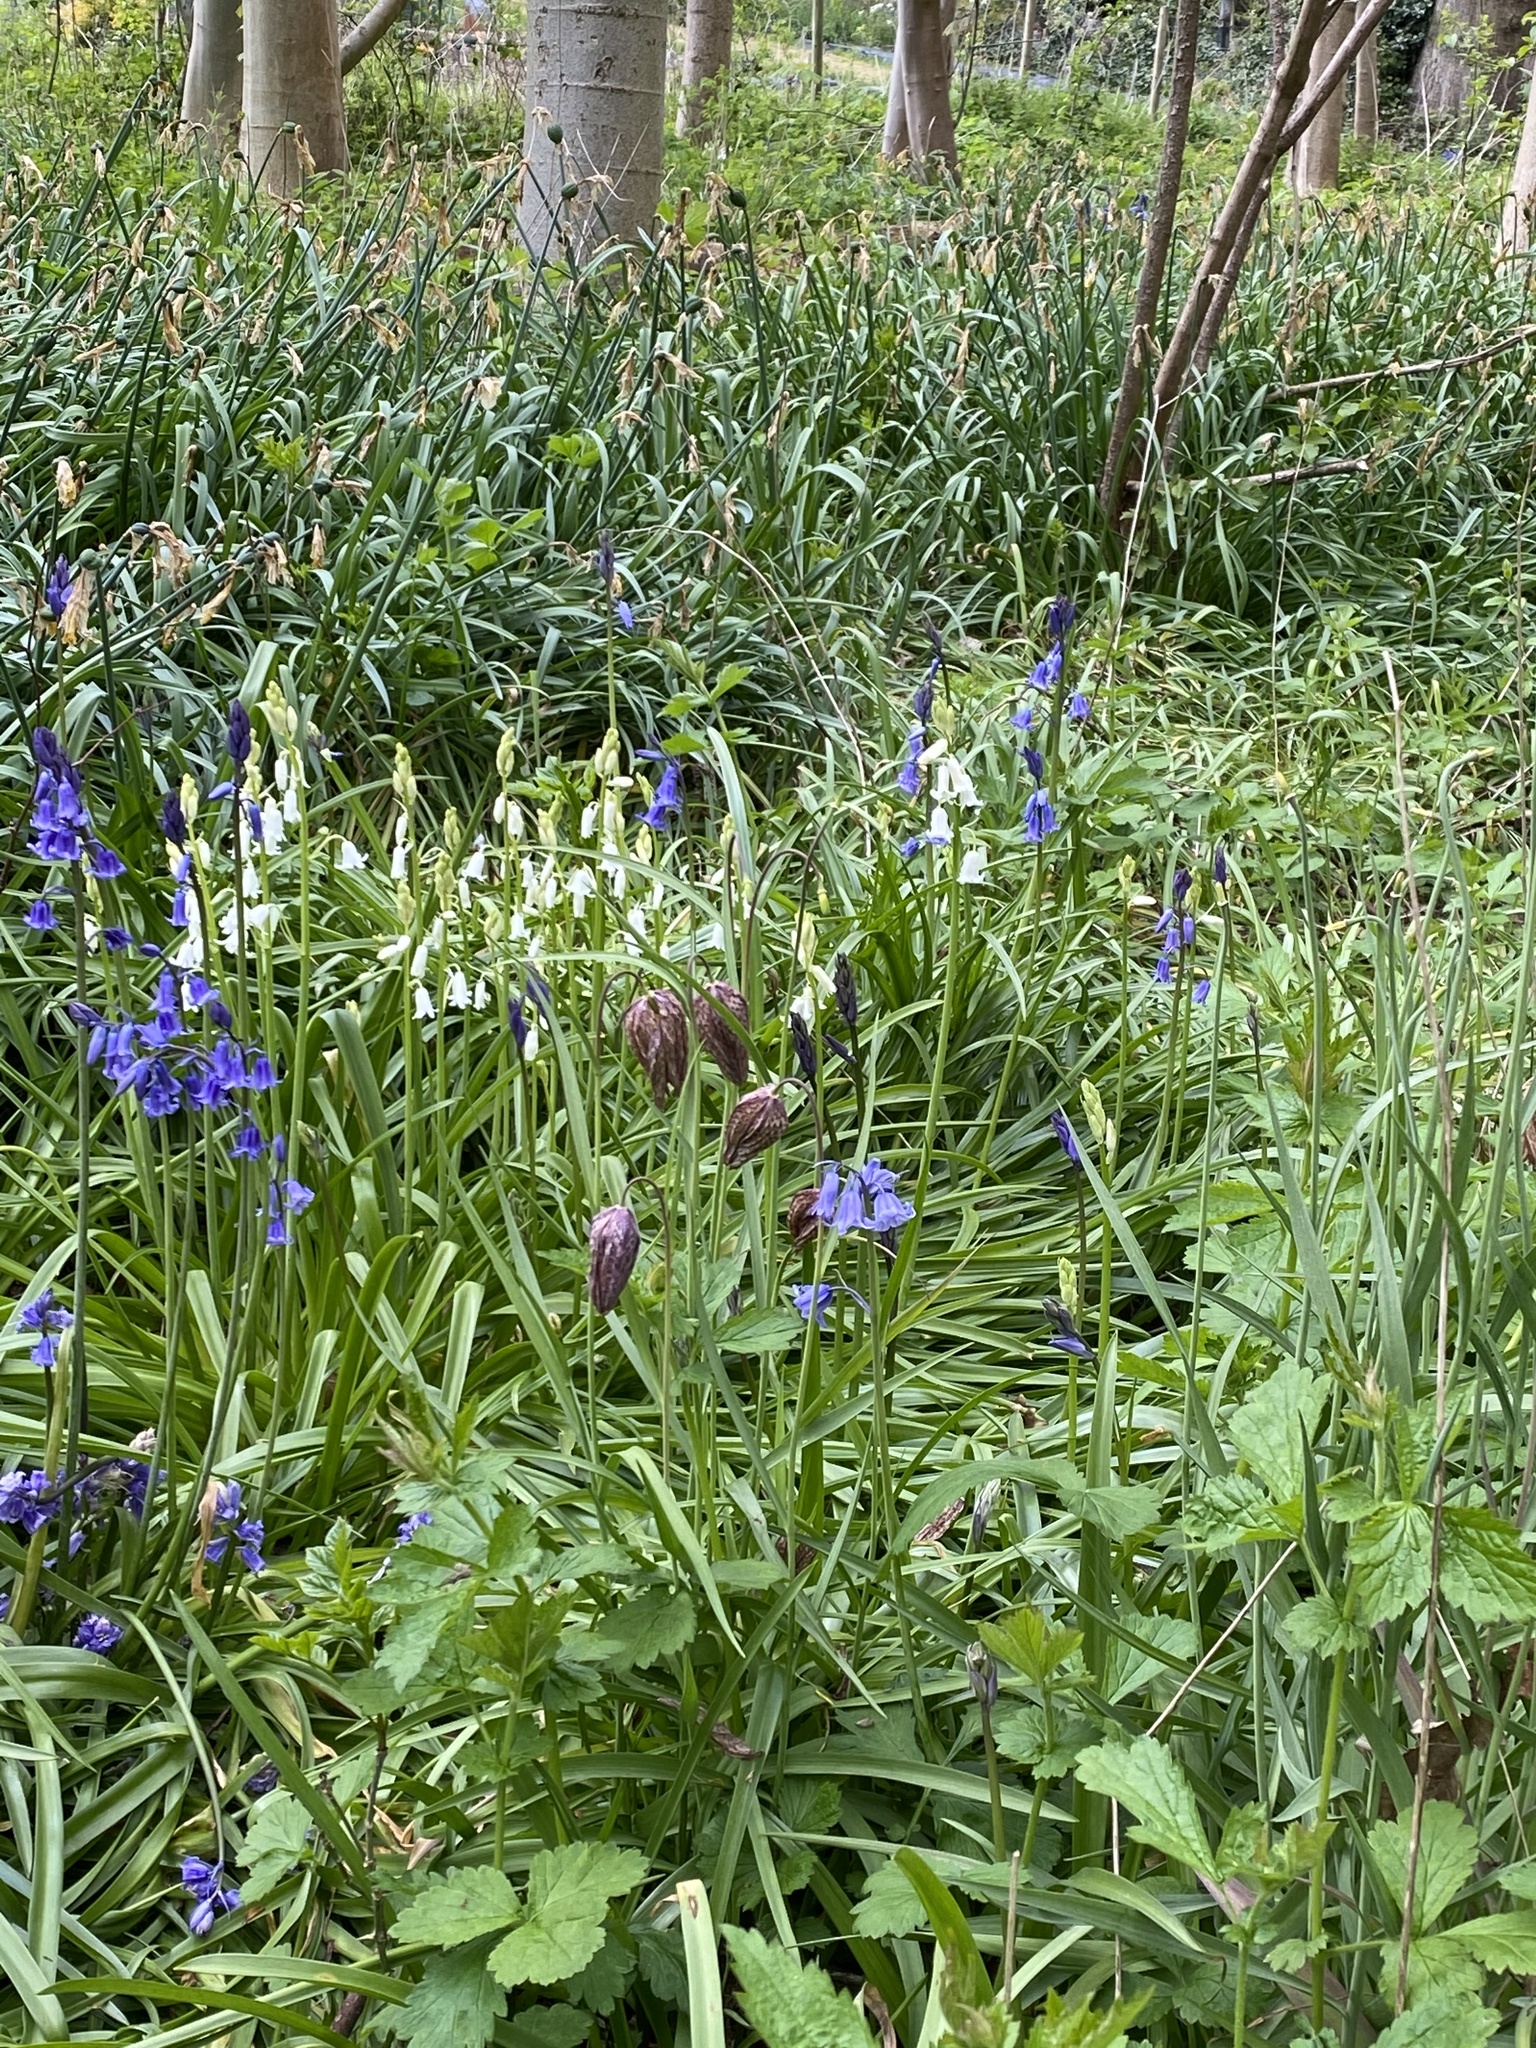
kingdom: Plantae
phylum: Tracheophyta
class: Liliopsida
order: Liliales
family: Liliaceae
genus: Fritillaria
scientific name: Fritillaria meleagris
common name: Fritillary
